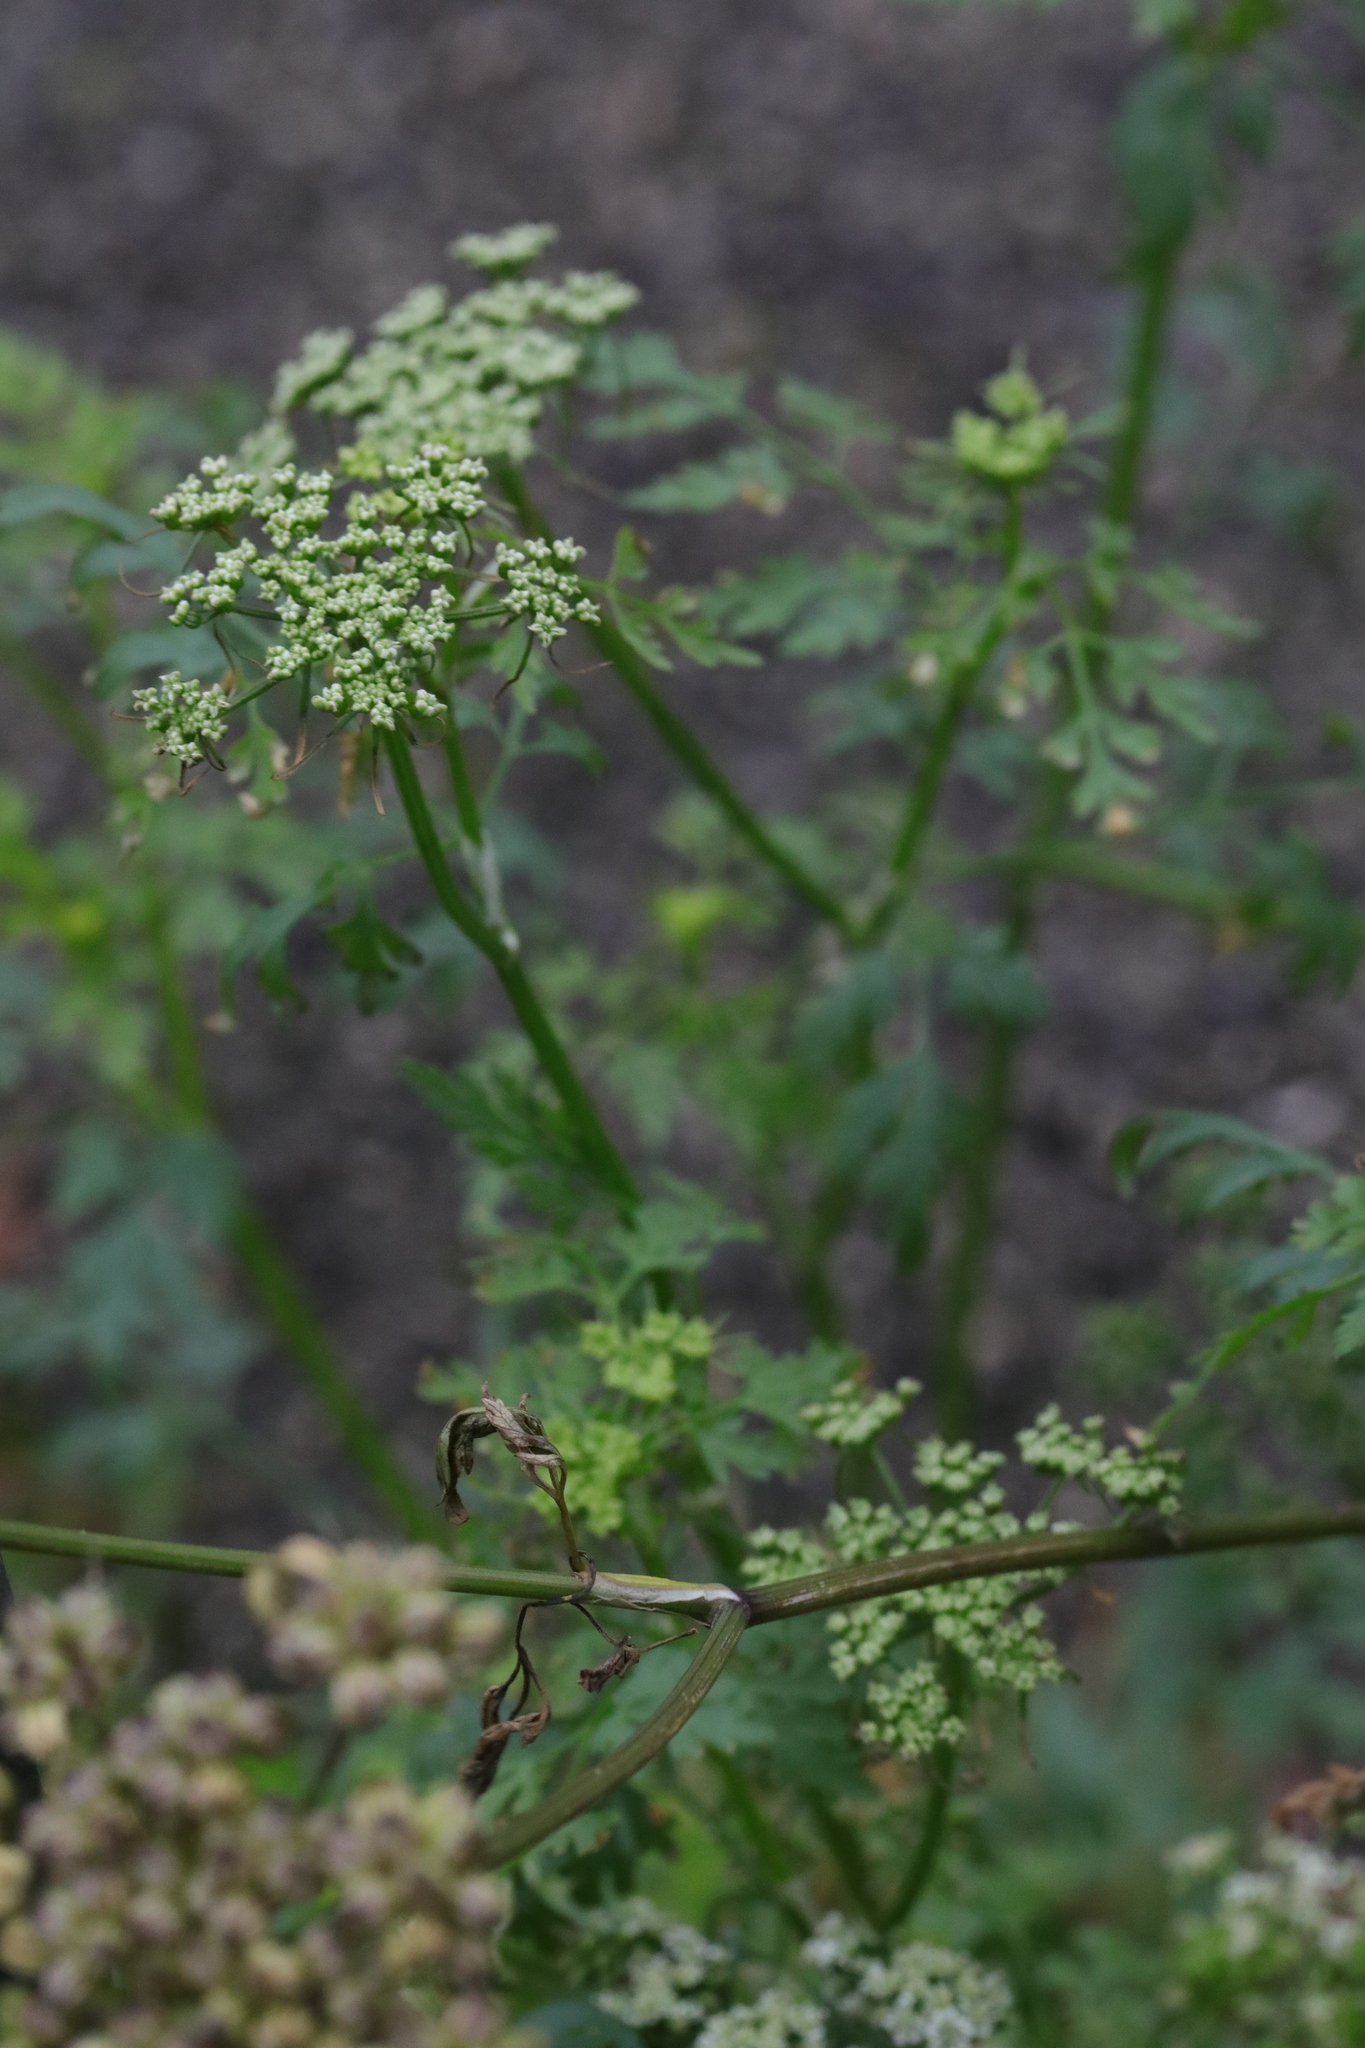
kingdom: Plantae
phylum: Tracheophyta
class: Magnoliopsida
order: Apiales
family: Apiaceae
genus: Oenanthe
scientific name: Oenanthe crocata
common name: Hemlock water-dropwort
